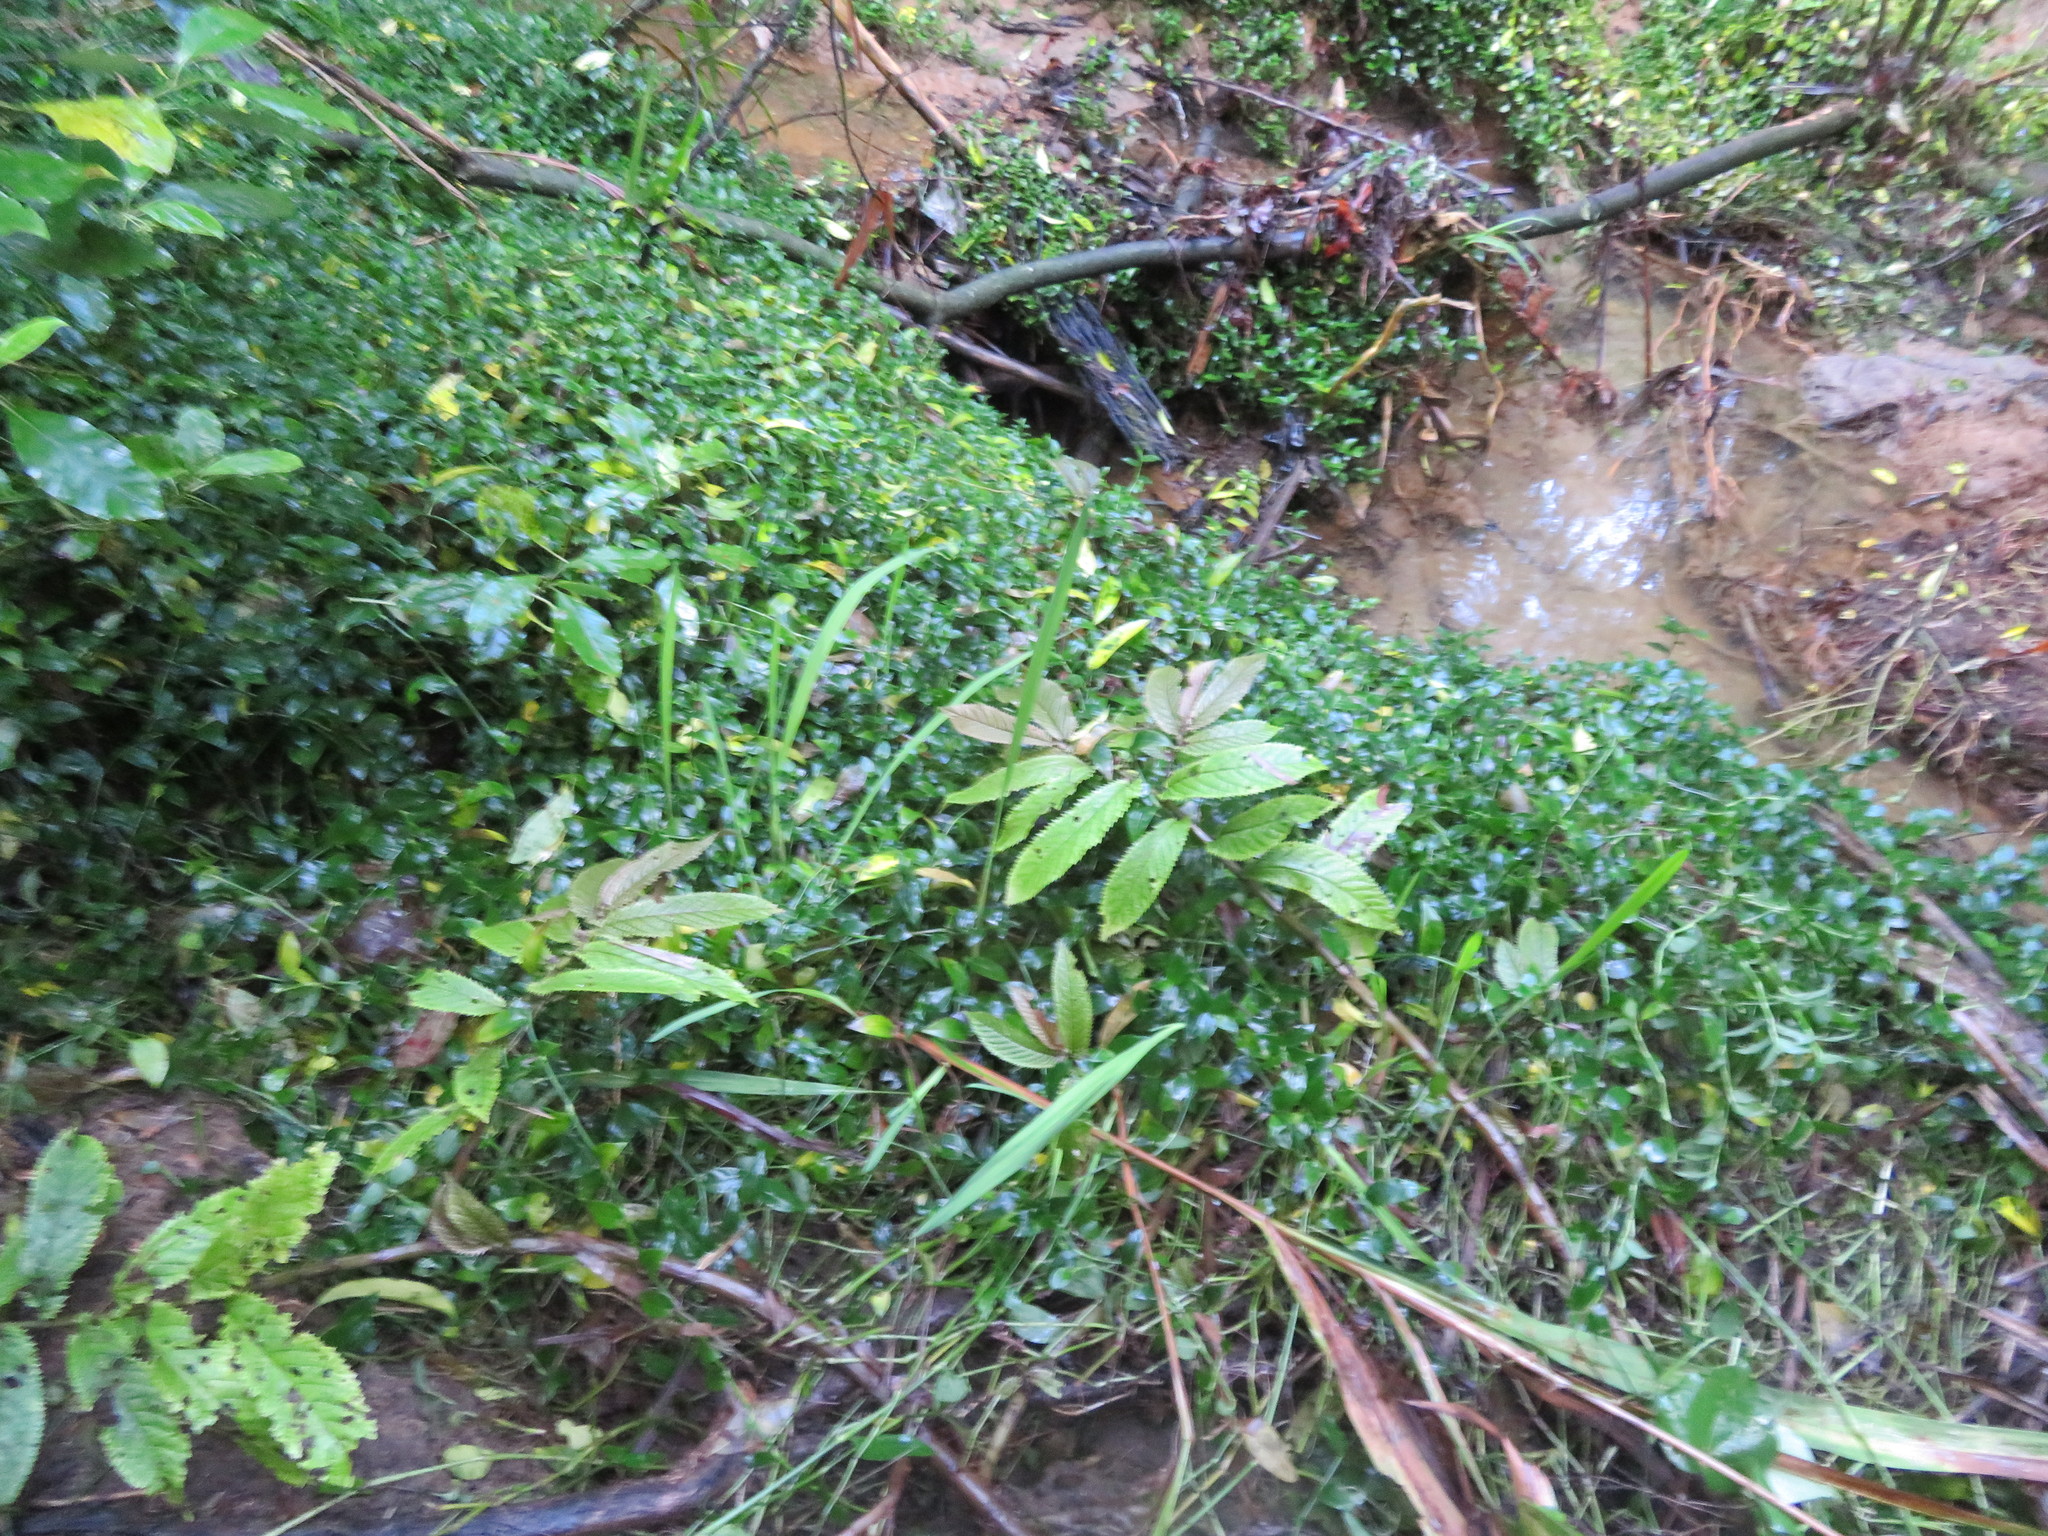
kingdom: Plantae
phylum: Tracheophyta
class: Magnoliopsida
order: Rosales
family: Urticaceae
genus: Elatostema
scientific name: Elatostema rugosum
